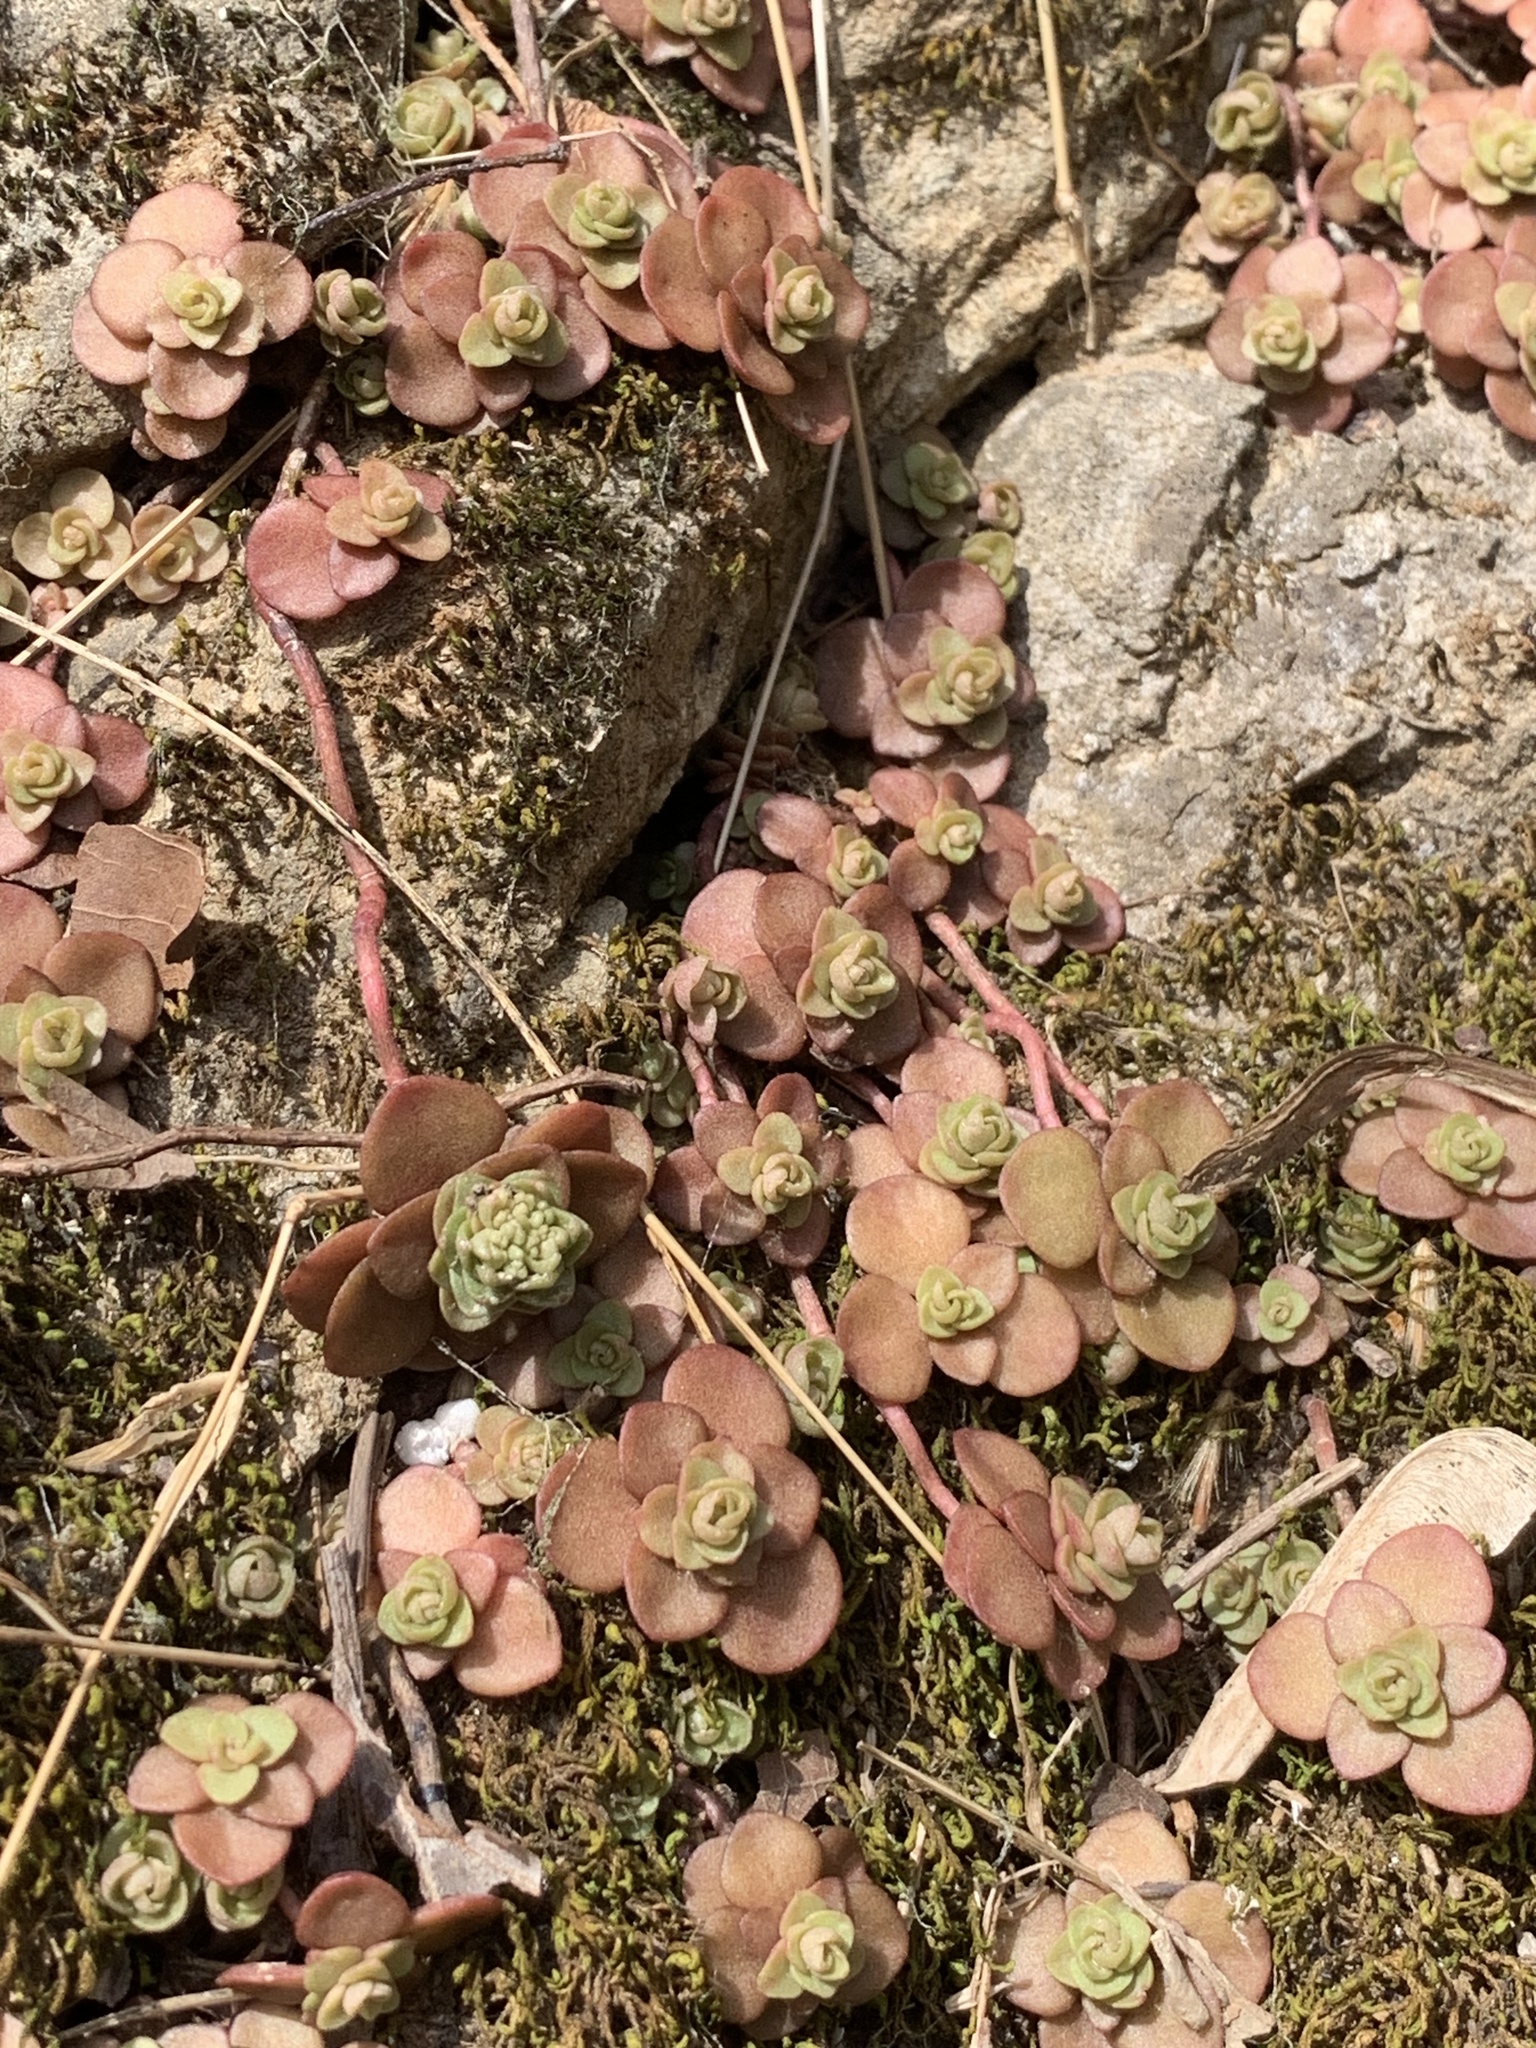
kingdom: Plantae
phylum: Tracheophyta
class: Magnoliopsida
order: Saxifragales
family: Crassulaceae
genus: Sedum
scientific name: Sedum ternatum
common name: Wild stonecrop
